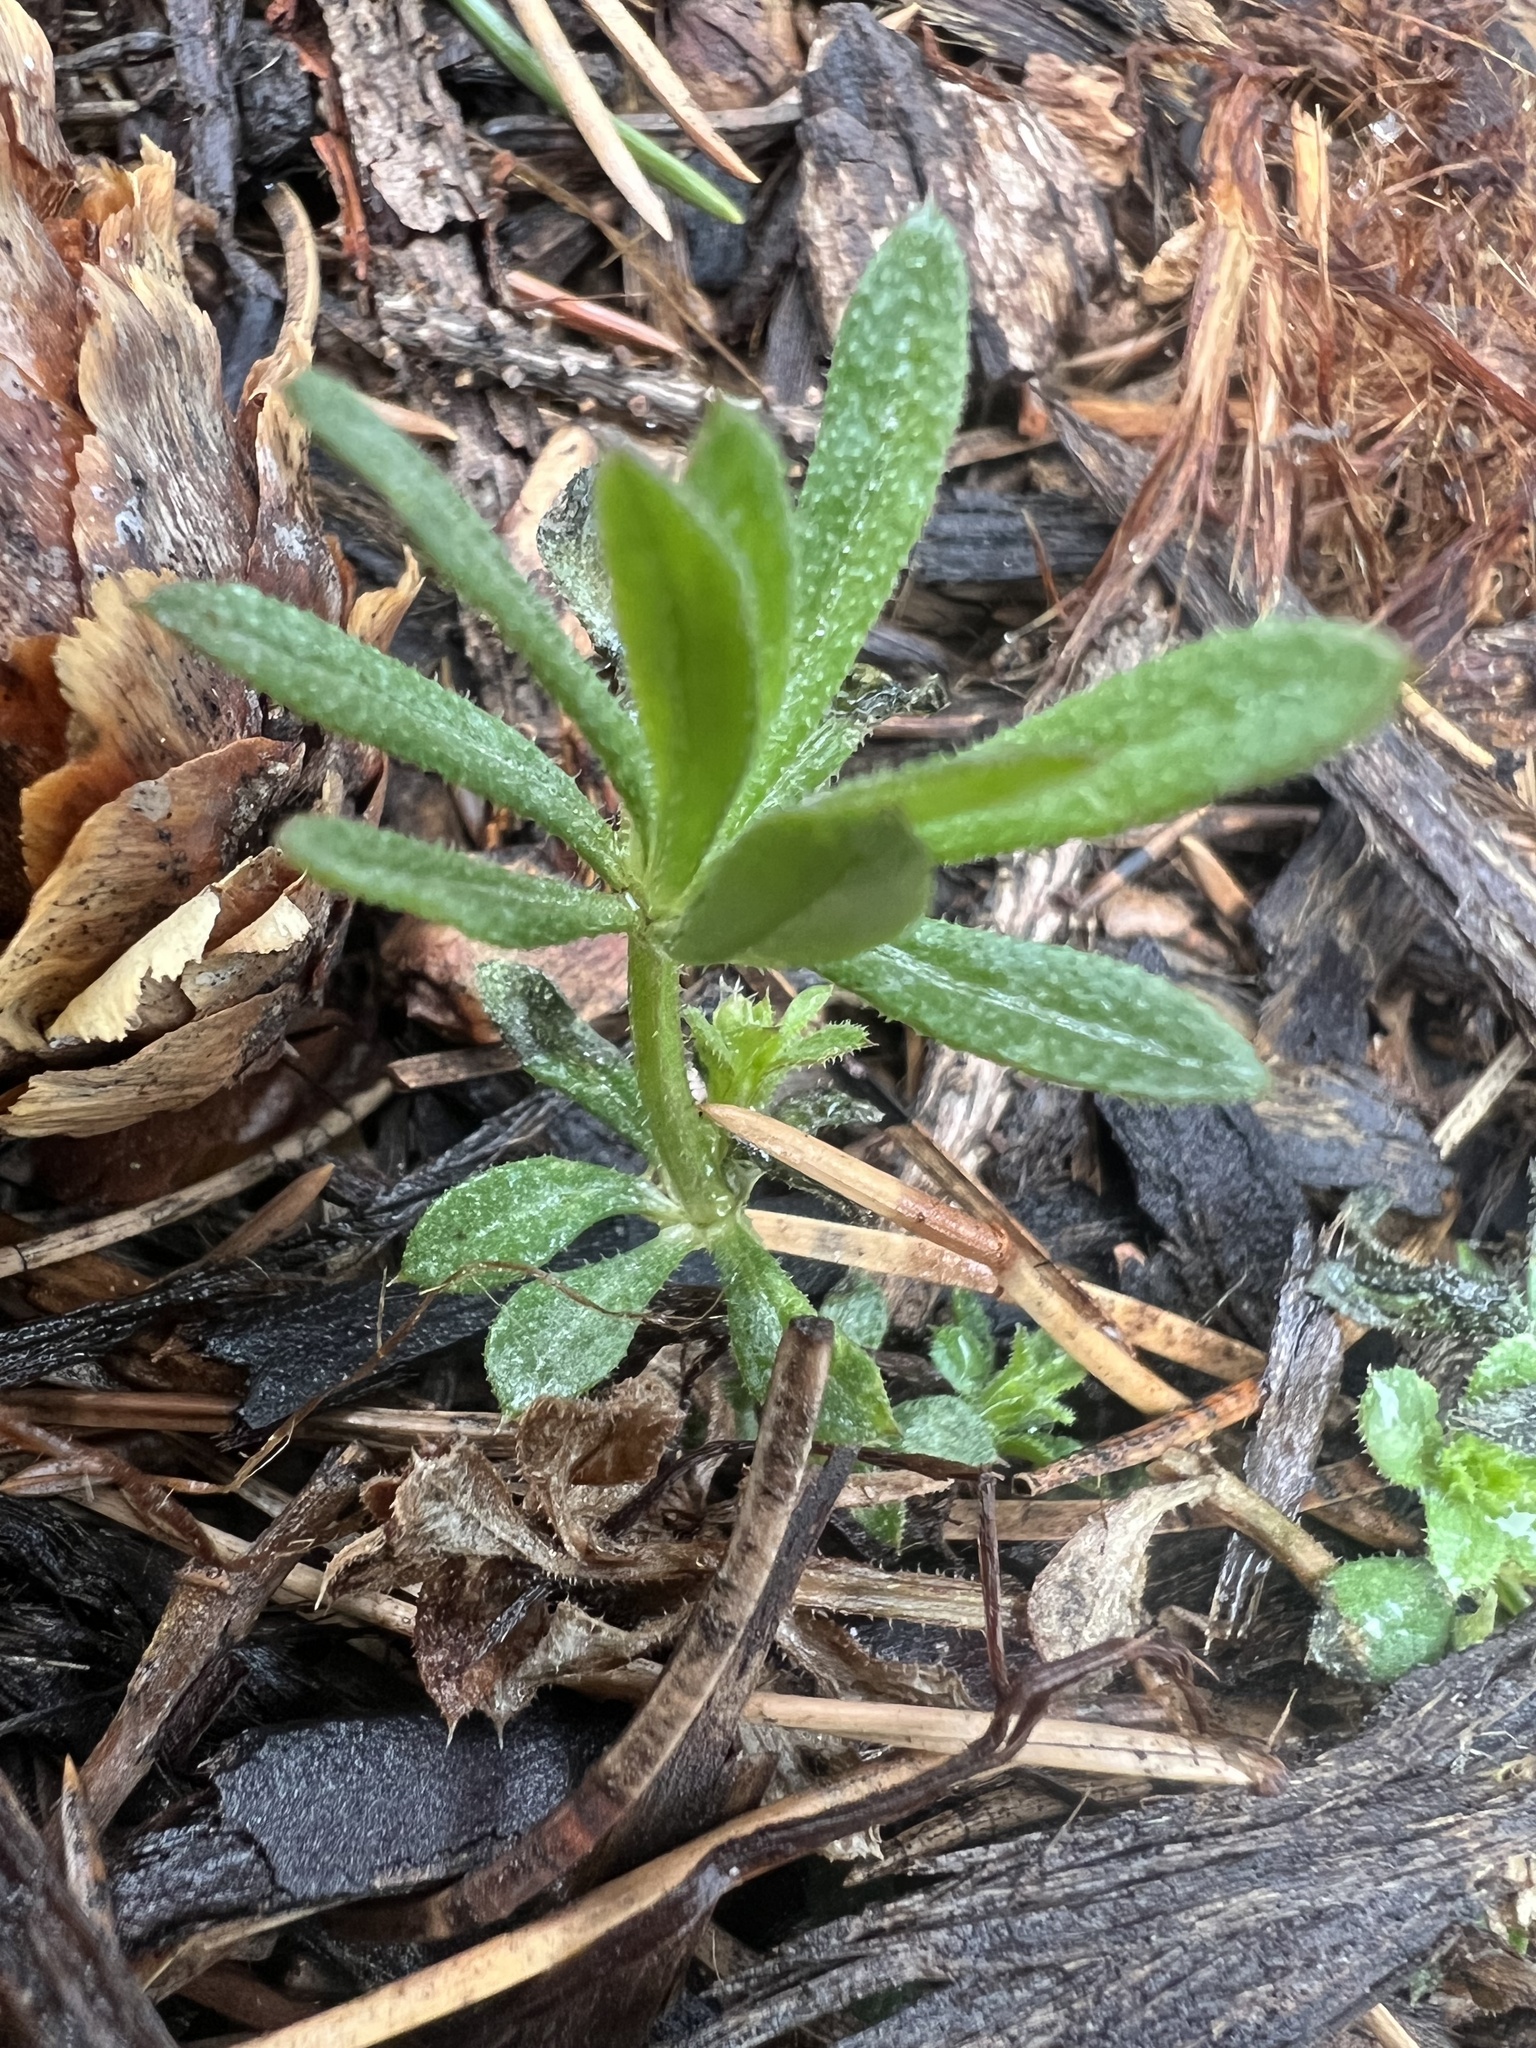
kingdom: Plantae
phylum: Tracheophyta
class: Magnoliopsida
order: Gentianales
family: Rubiaceae
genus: Galium
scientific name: Galium aparine
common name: Cleavers
